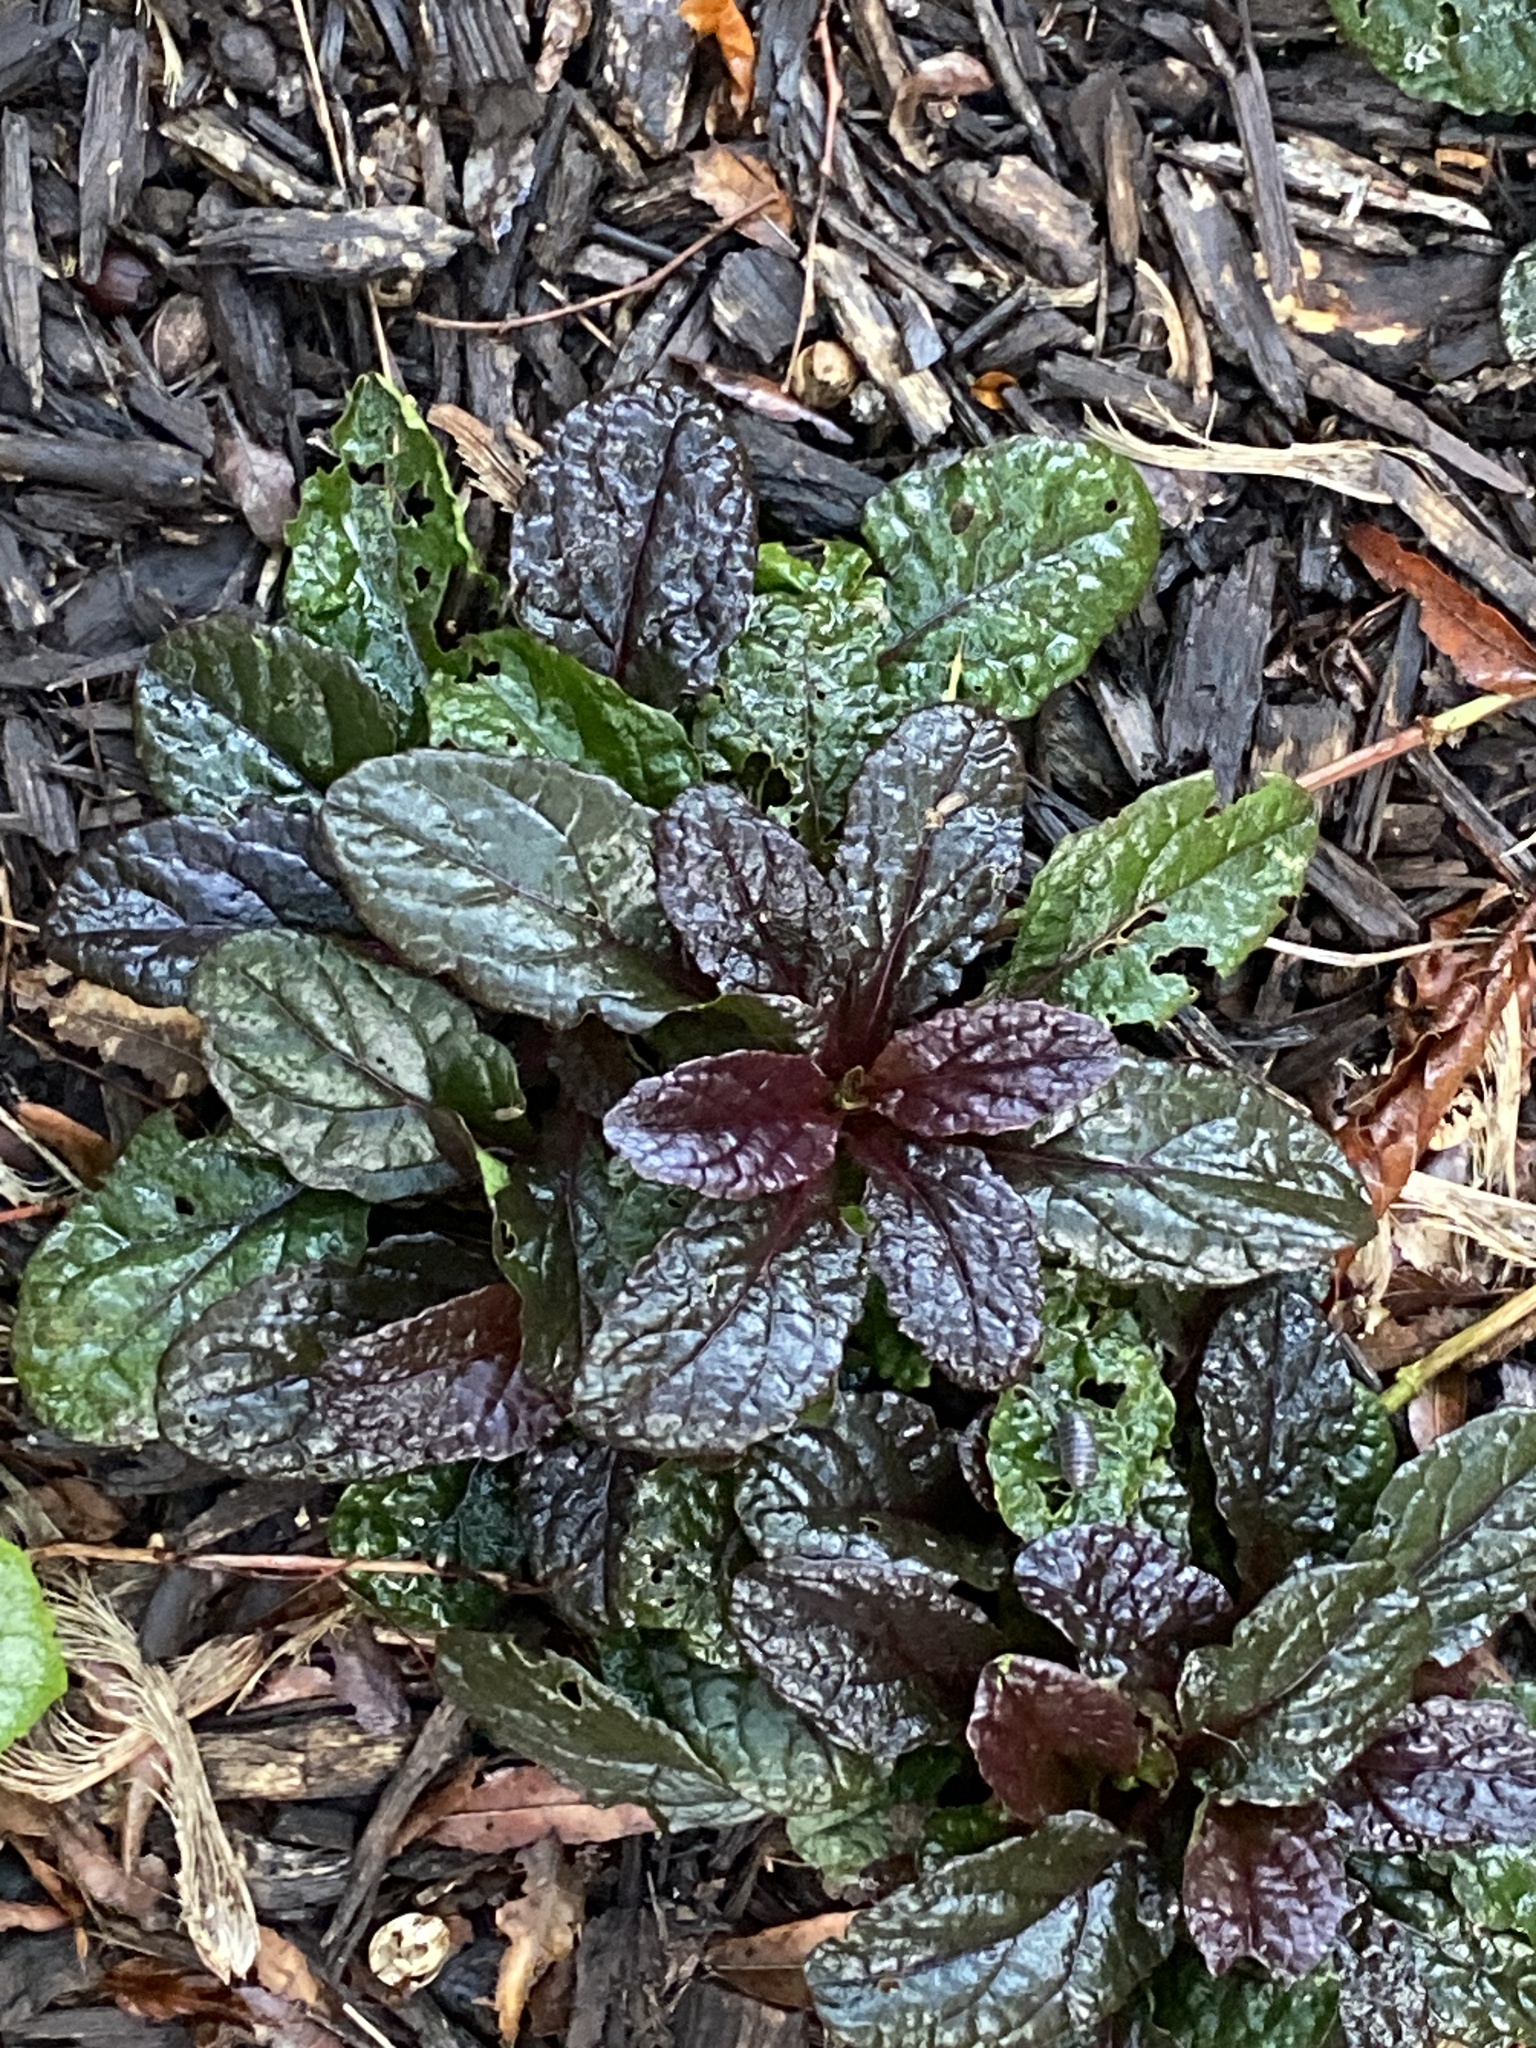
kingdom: Plantae
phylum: Tracheophyta
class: Magnoliopsida
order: Lamiales
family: Lamiaceae
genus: Ajuga
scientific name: Ajuga reptans
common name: Bugle
